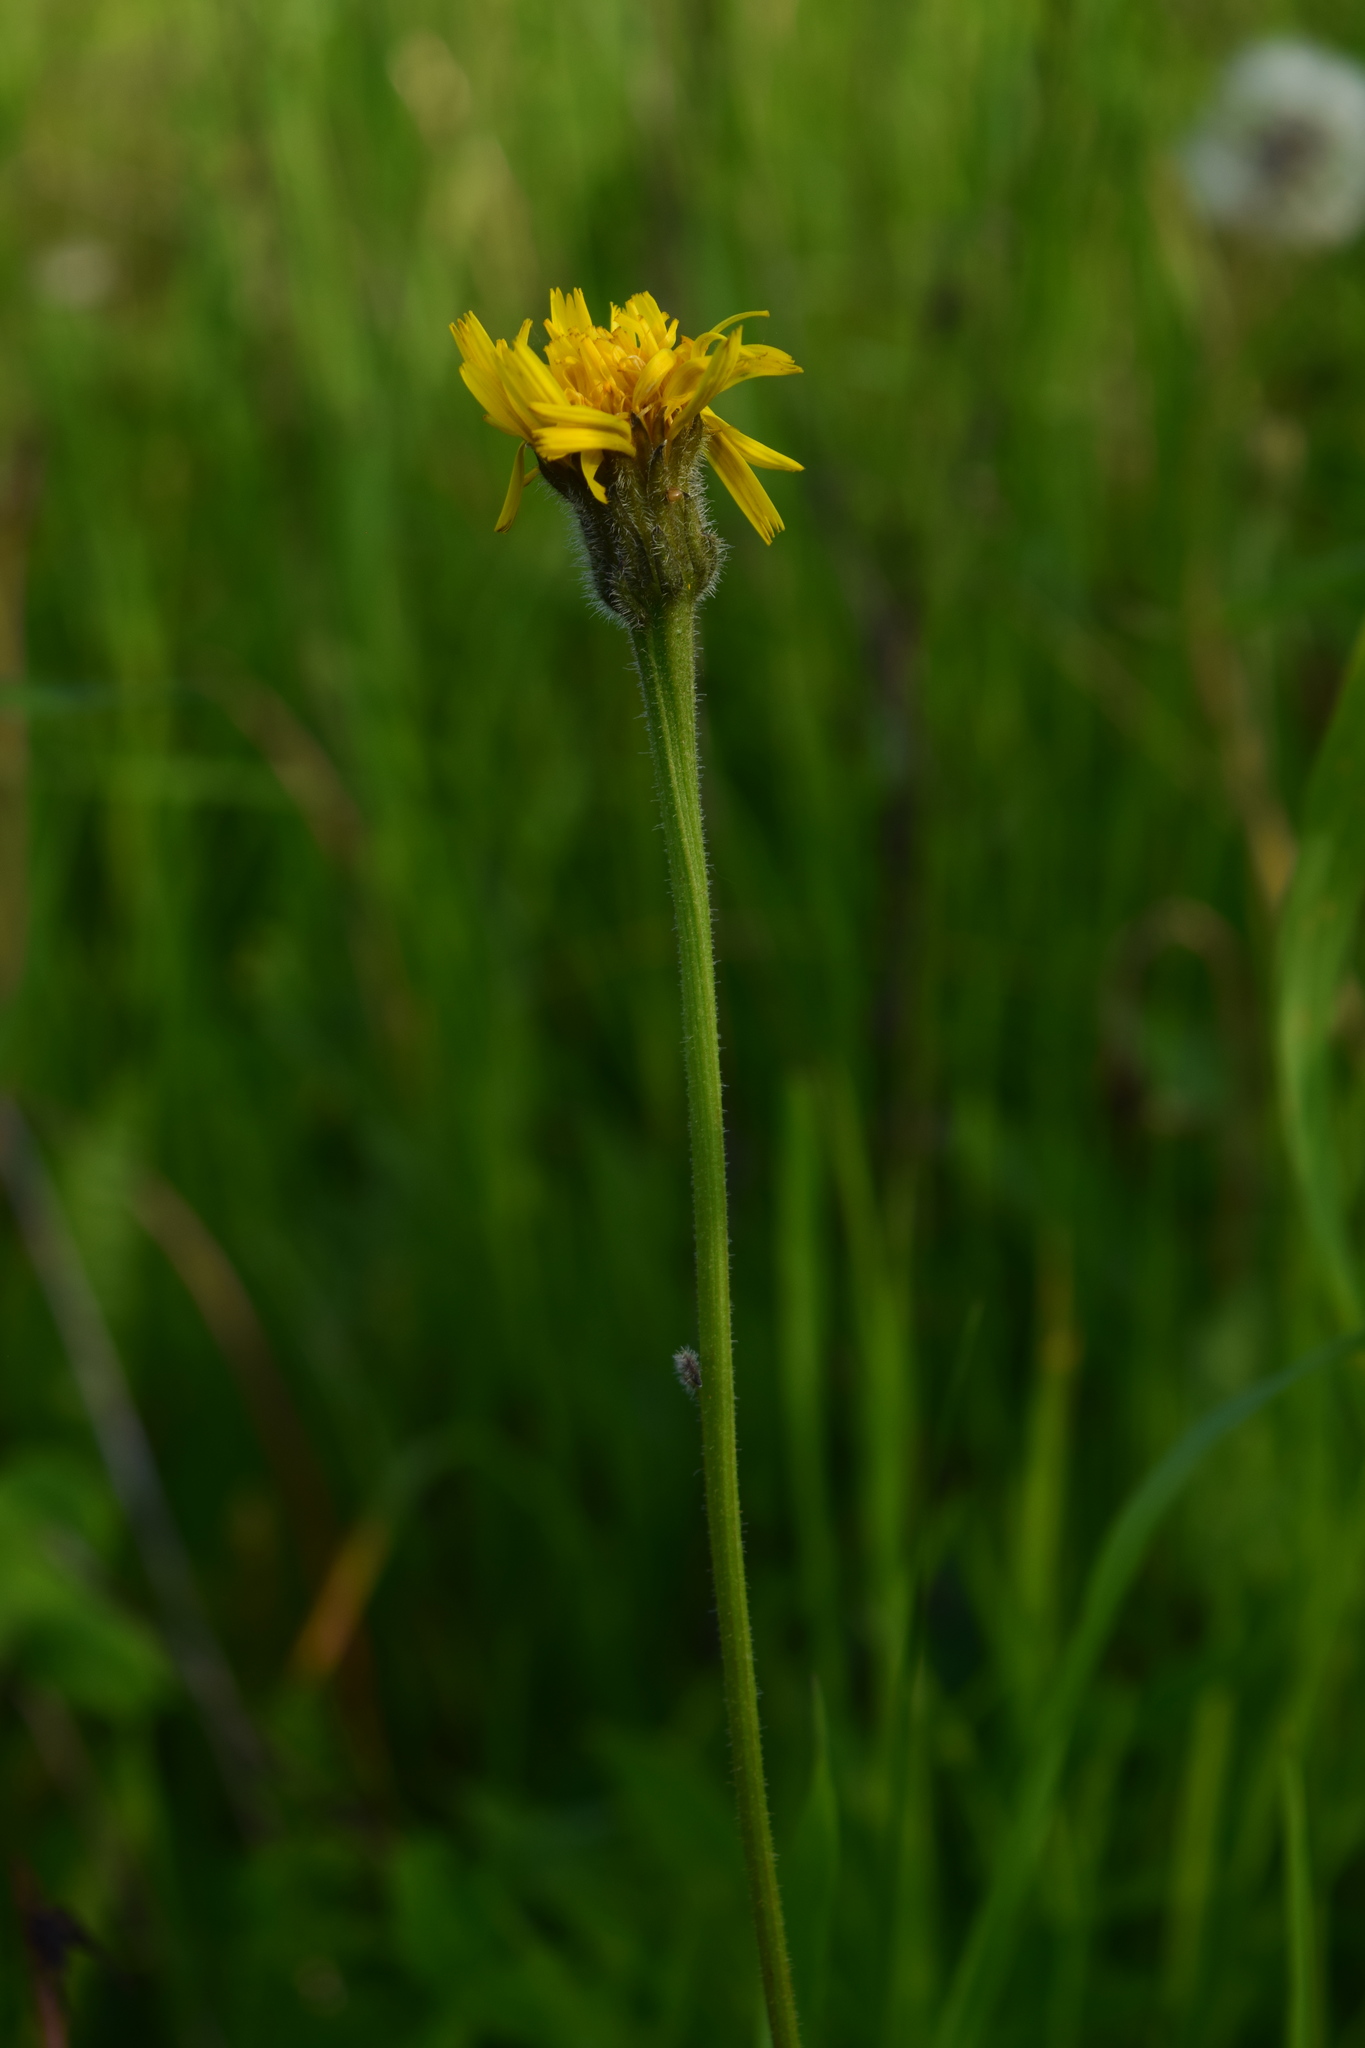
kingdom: Plantae
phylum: Tracheophyta
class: Magnoliopsida
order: Asterales
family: Asteraceae
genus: Leontodon
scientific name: Leontodon hispidus
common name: Rough hawkbit
